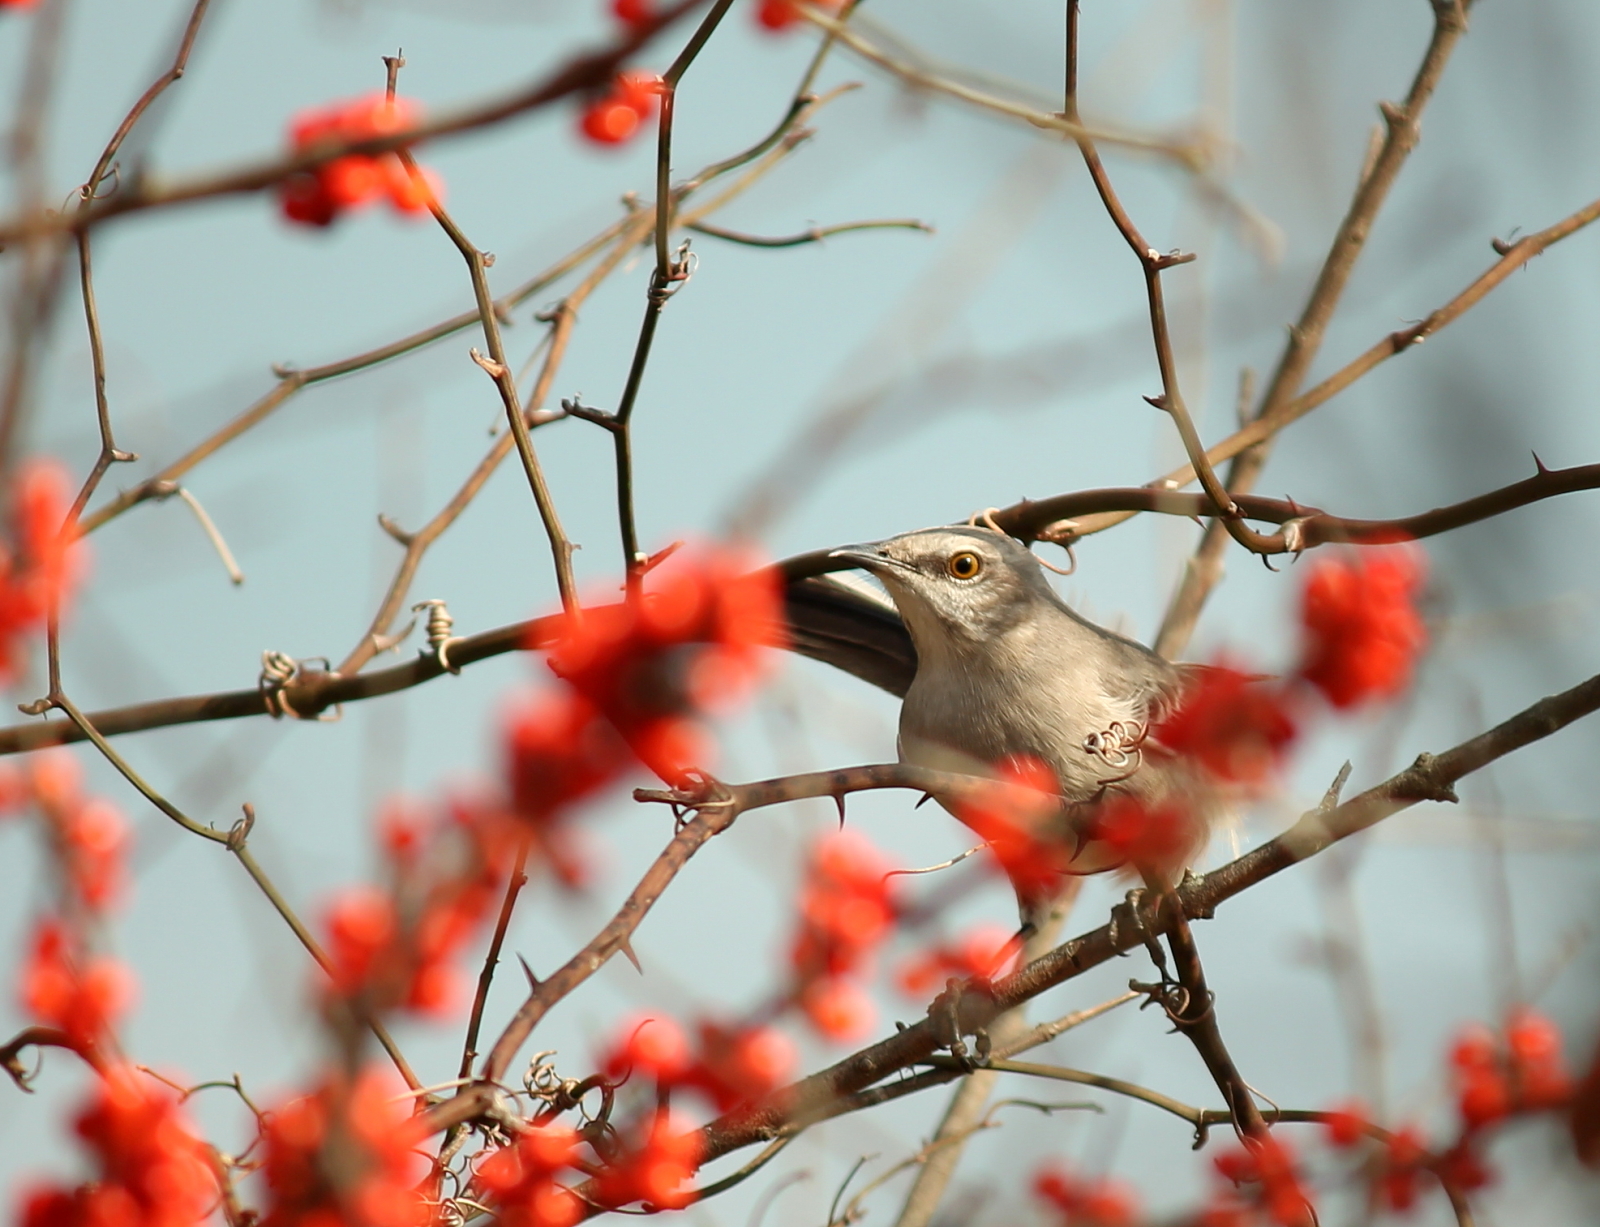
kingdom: Animalia
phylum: Chordata
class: Aves
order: Passeriformes
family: Mimidae
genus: Mimus
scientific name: Mimus polyglottos
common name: Northern mockingbird
